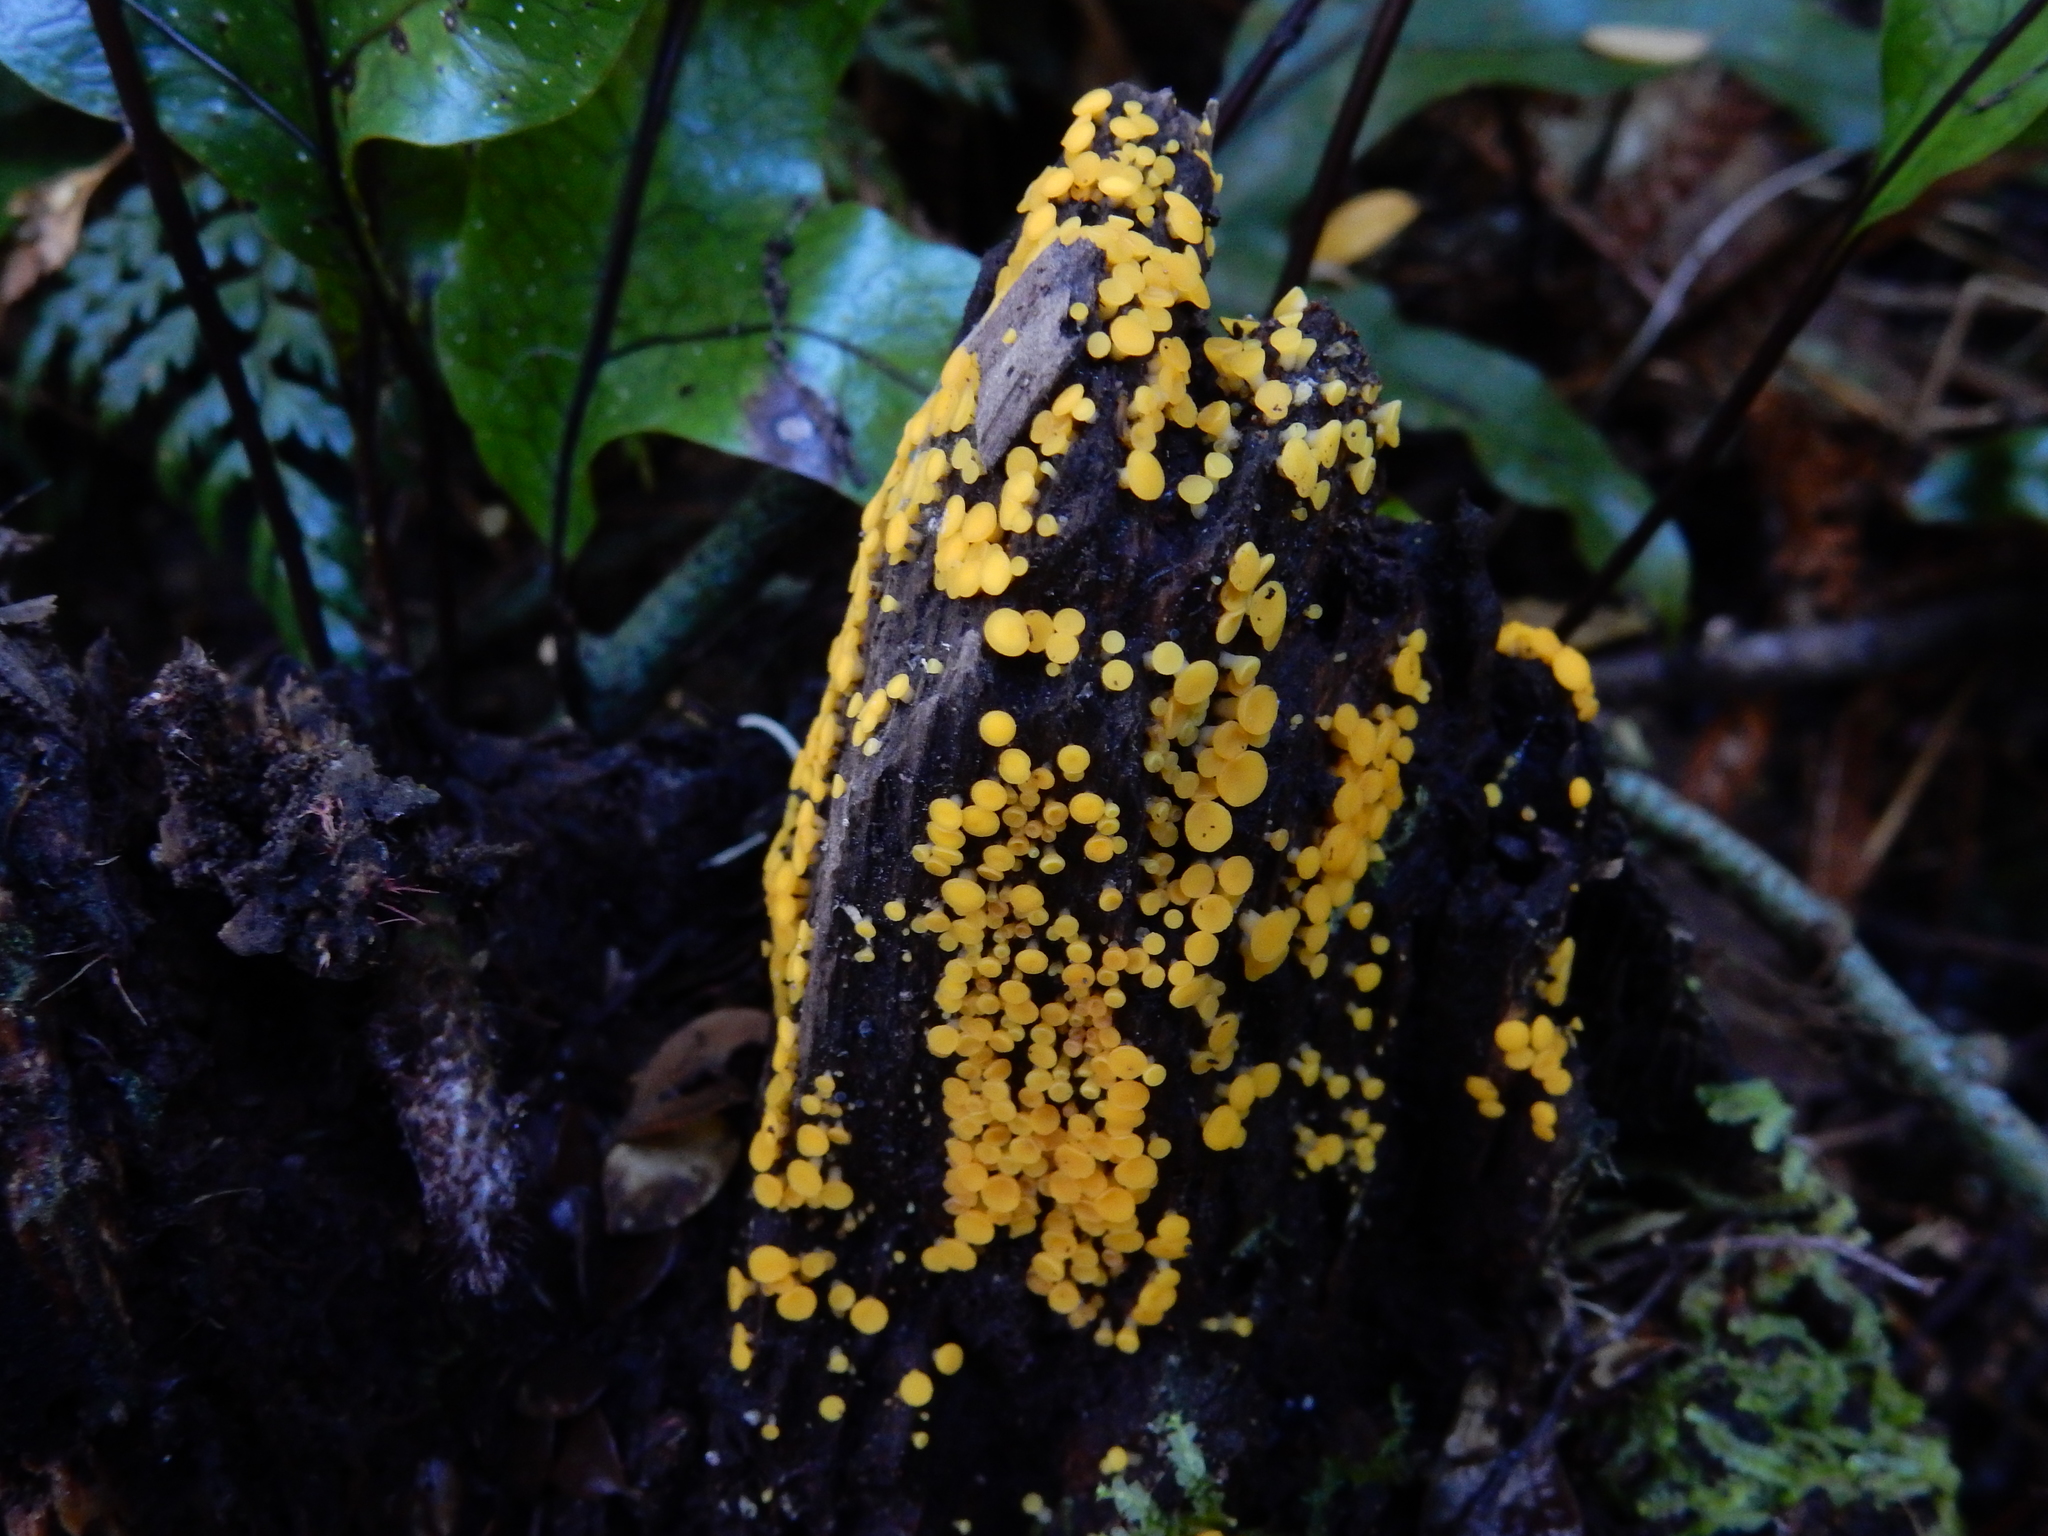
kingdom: Fungi
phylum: Ascomycota
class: Leotiomycetes
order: Helotiales
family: Pezizellaceae
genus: Calycina
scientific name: Calycina citrina
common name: Yellow fairy cups
